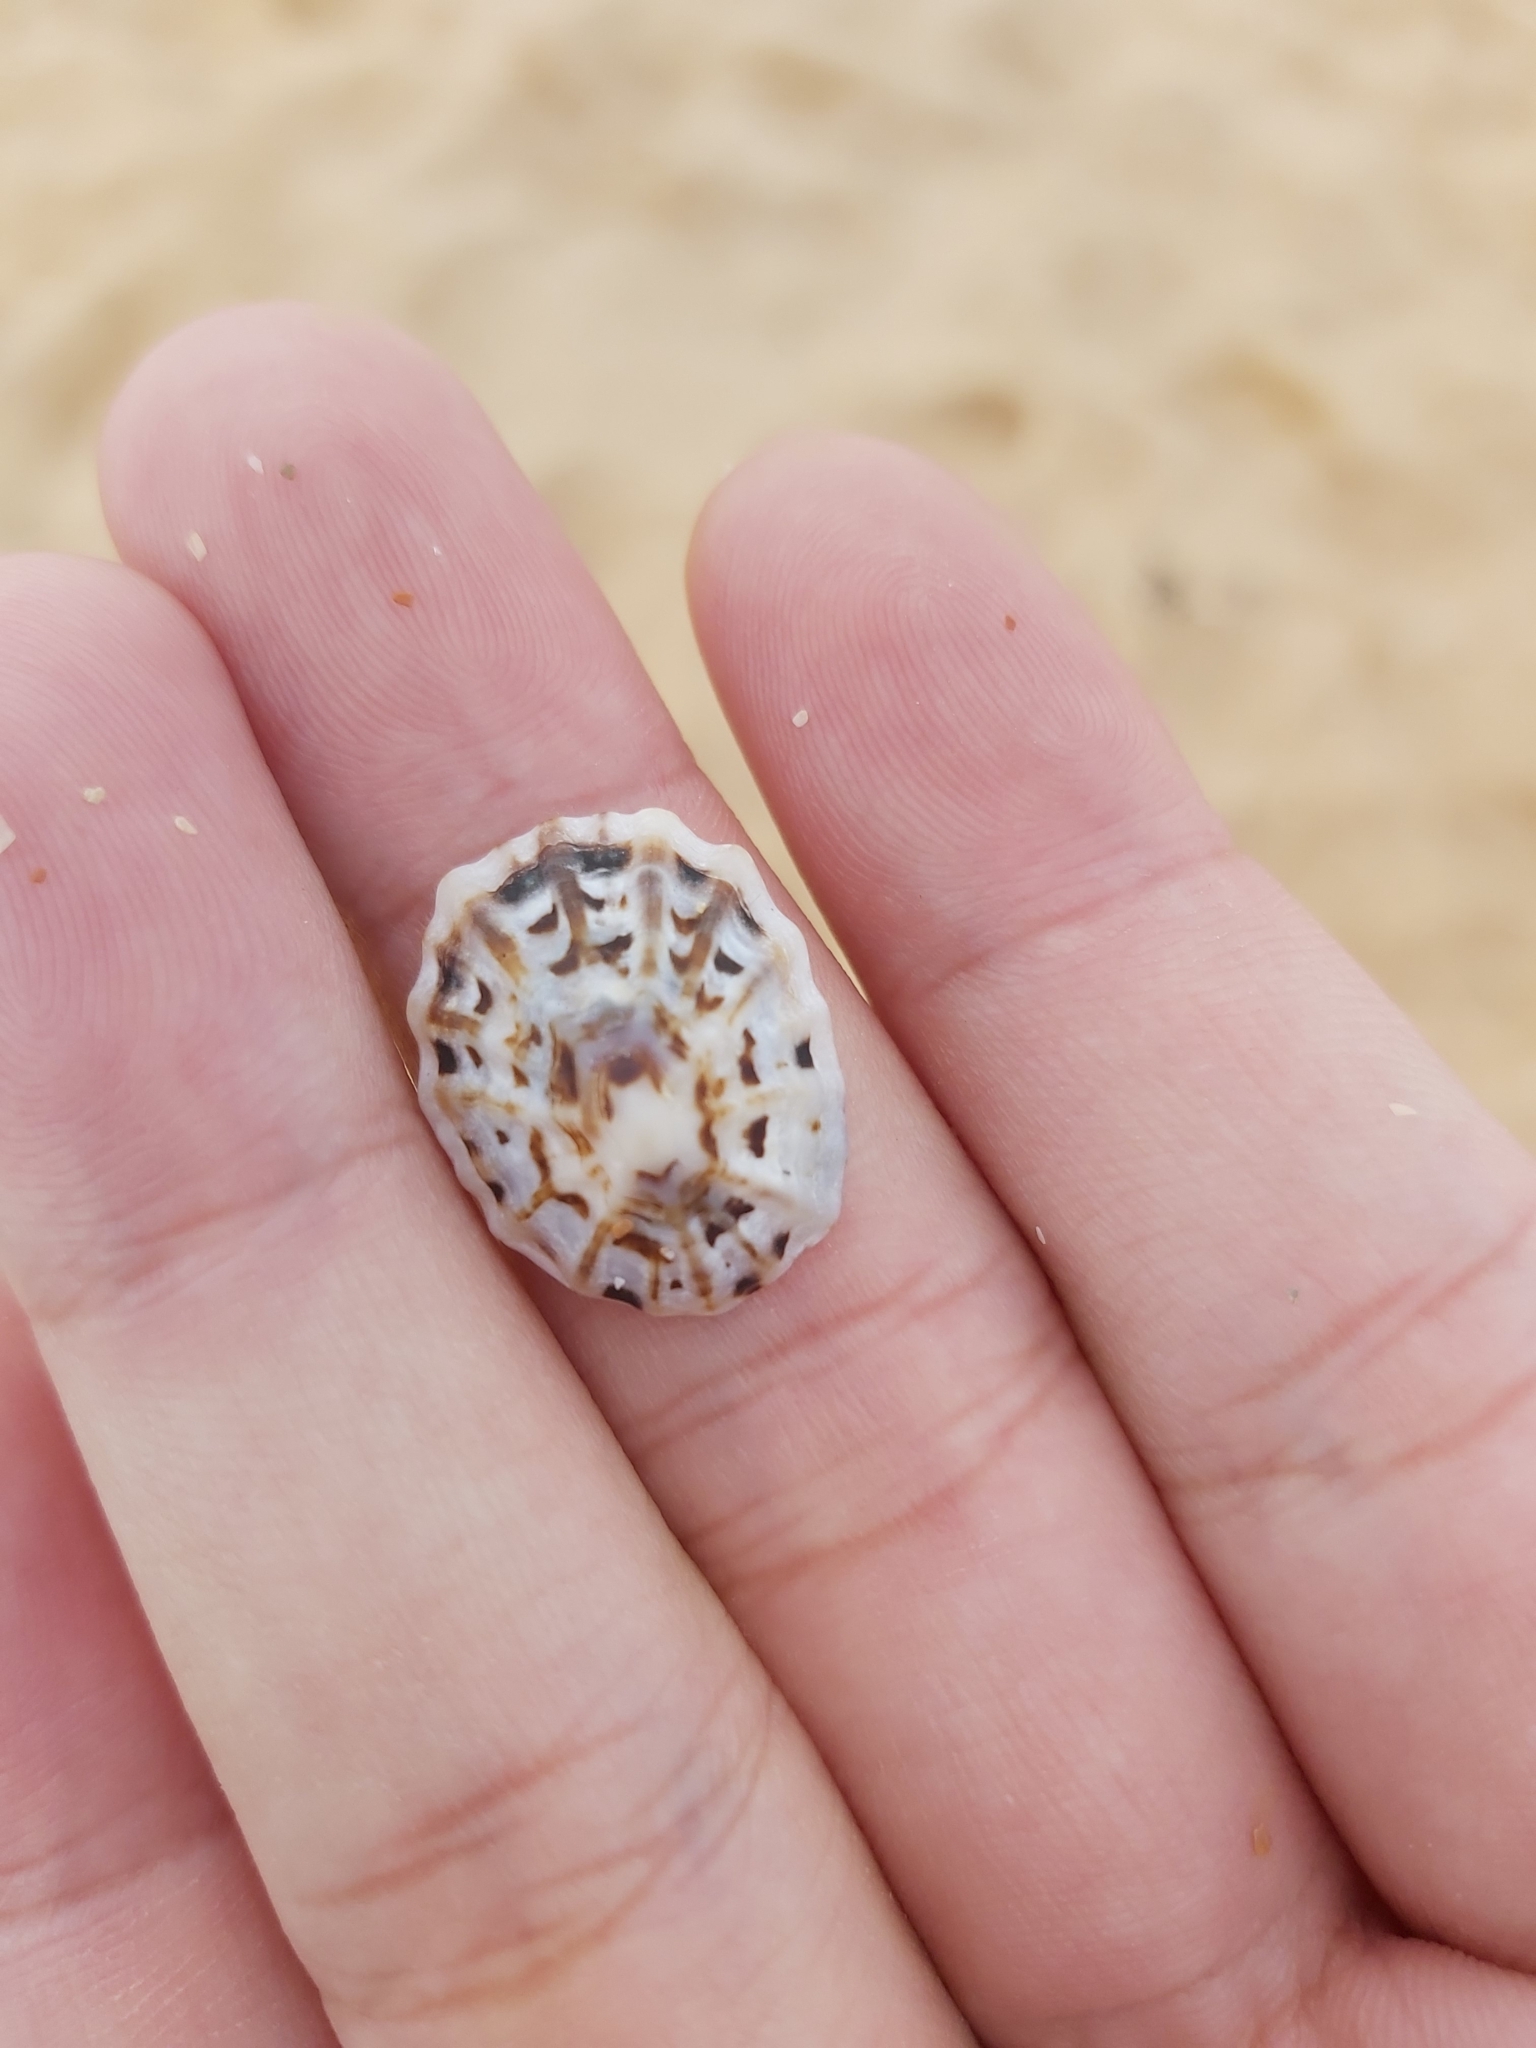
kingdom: Animalia
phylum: Mollusca
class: Gastropoda
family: Lottiidae
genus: Patelloida
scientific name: Patelloida alticostata
